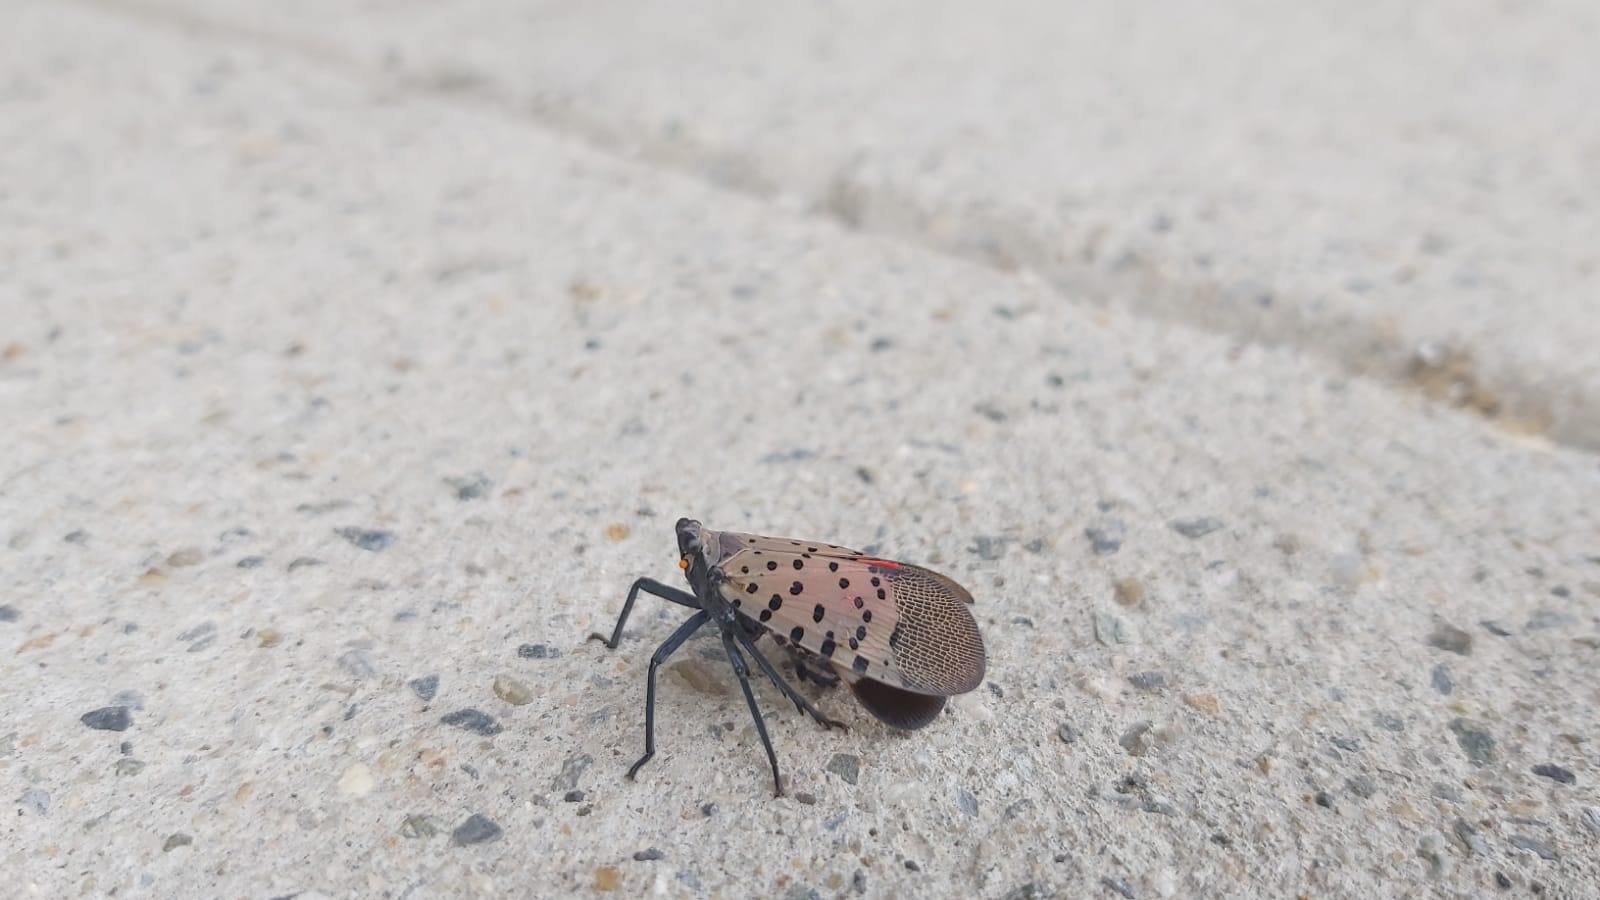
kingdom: Animalia
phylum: Arthropoda
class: Insecta
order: Hemiptera
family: Fulgoridae
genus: Lycorma
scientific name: Lycorma delicatula
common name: Spotted lanternfly
